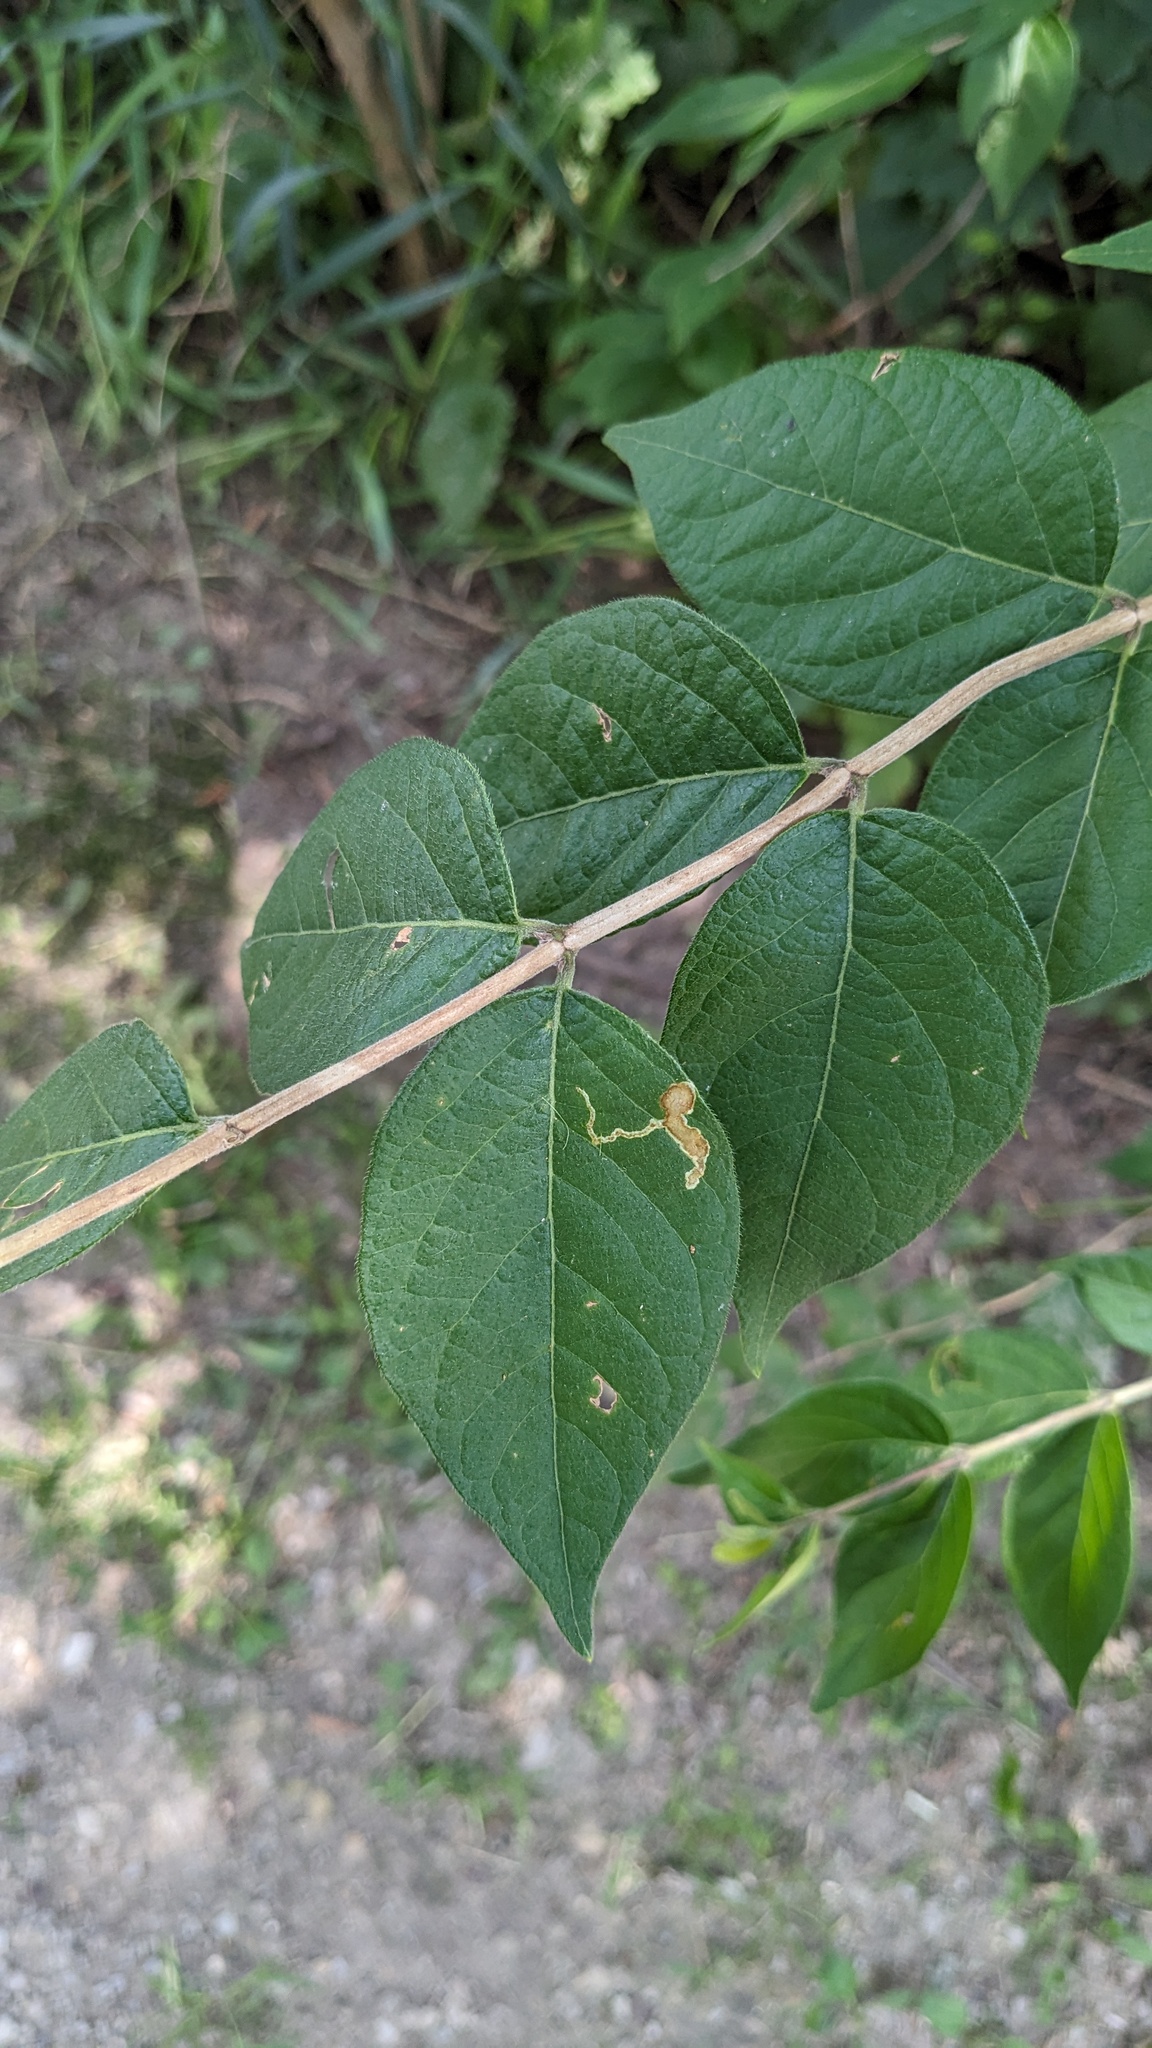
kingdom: Plantae
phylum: Tracheophyta
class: Magnoliopsida
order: Dipsacales
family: Caprifoliaceae
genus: Lonicera
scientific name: Lonicera maackii
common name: Amur honeysuckle
